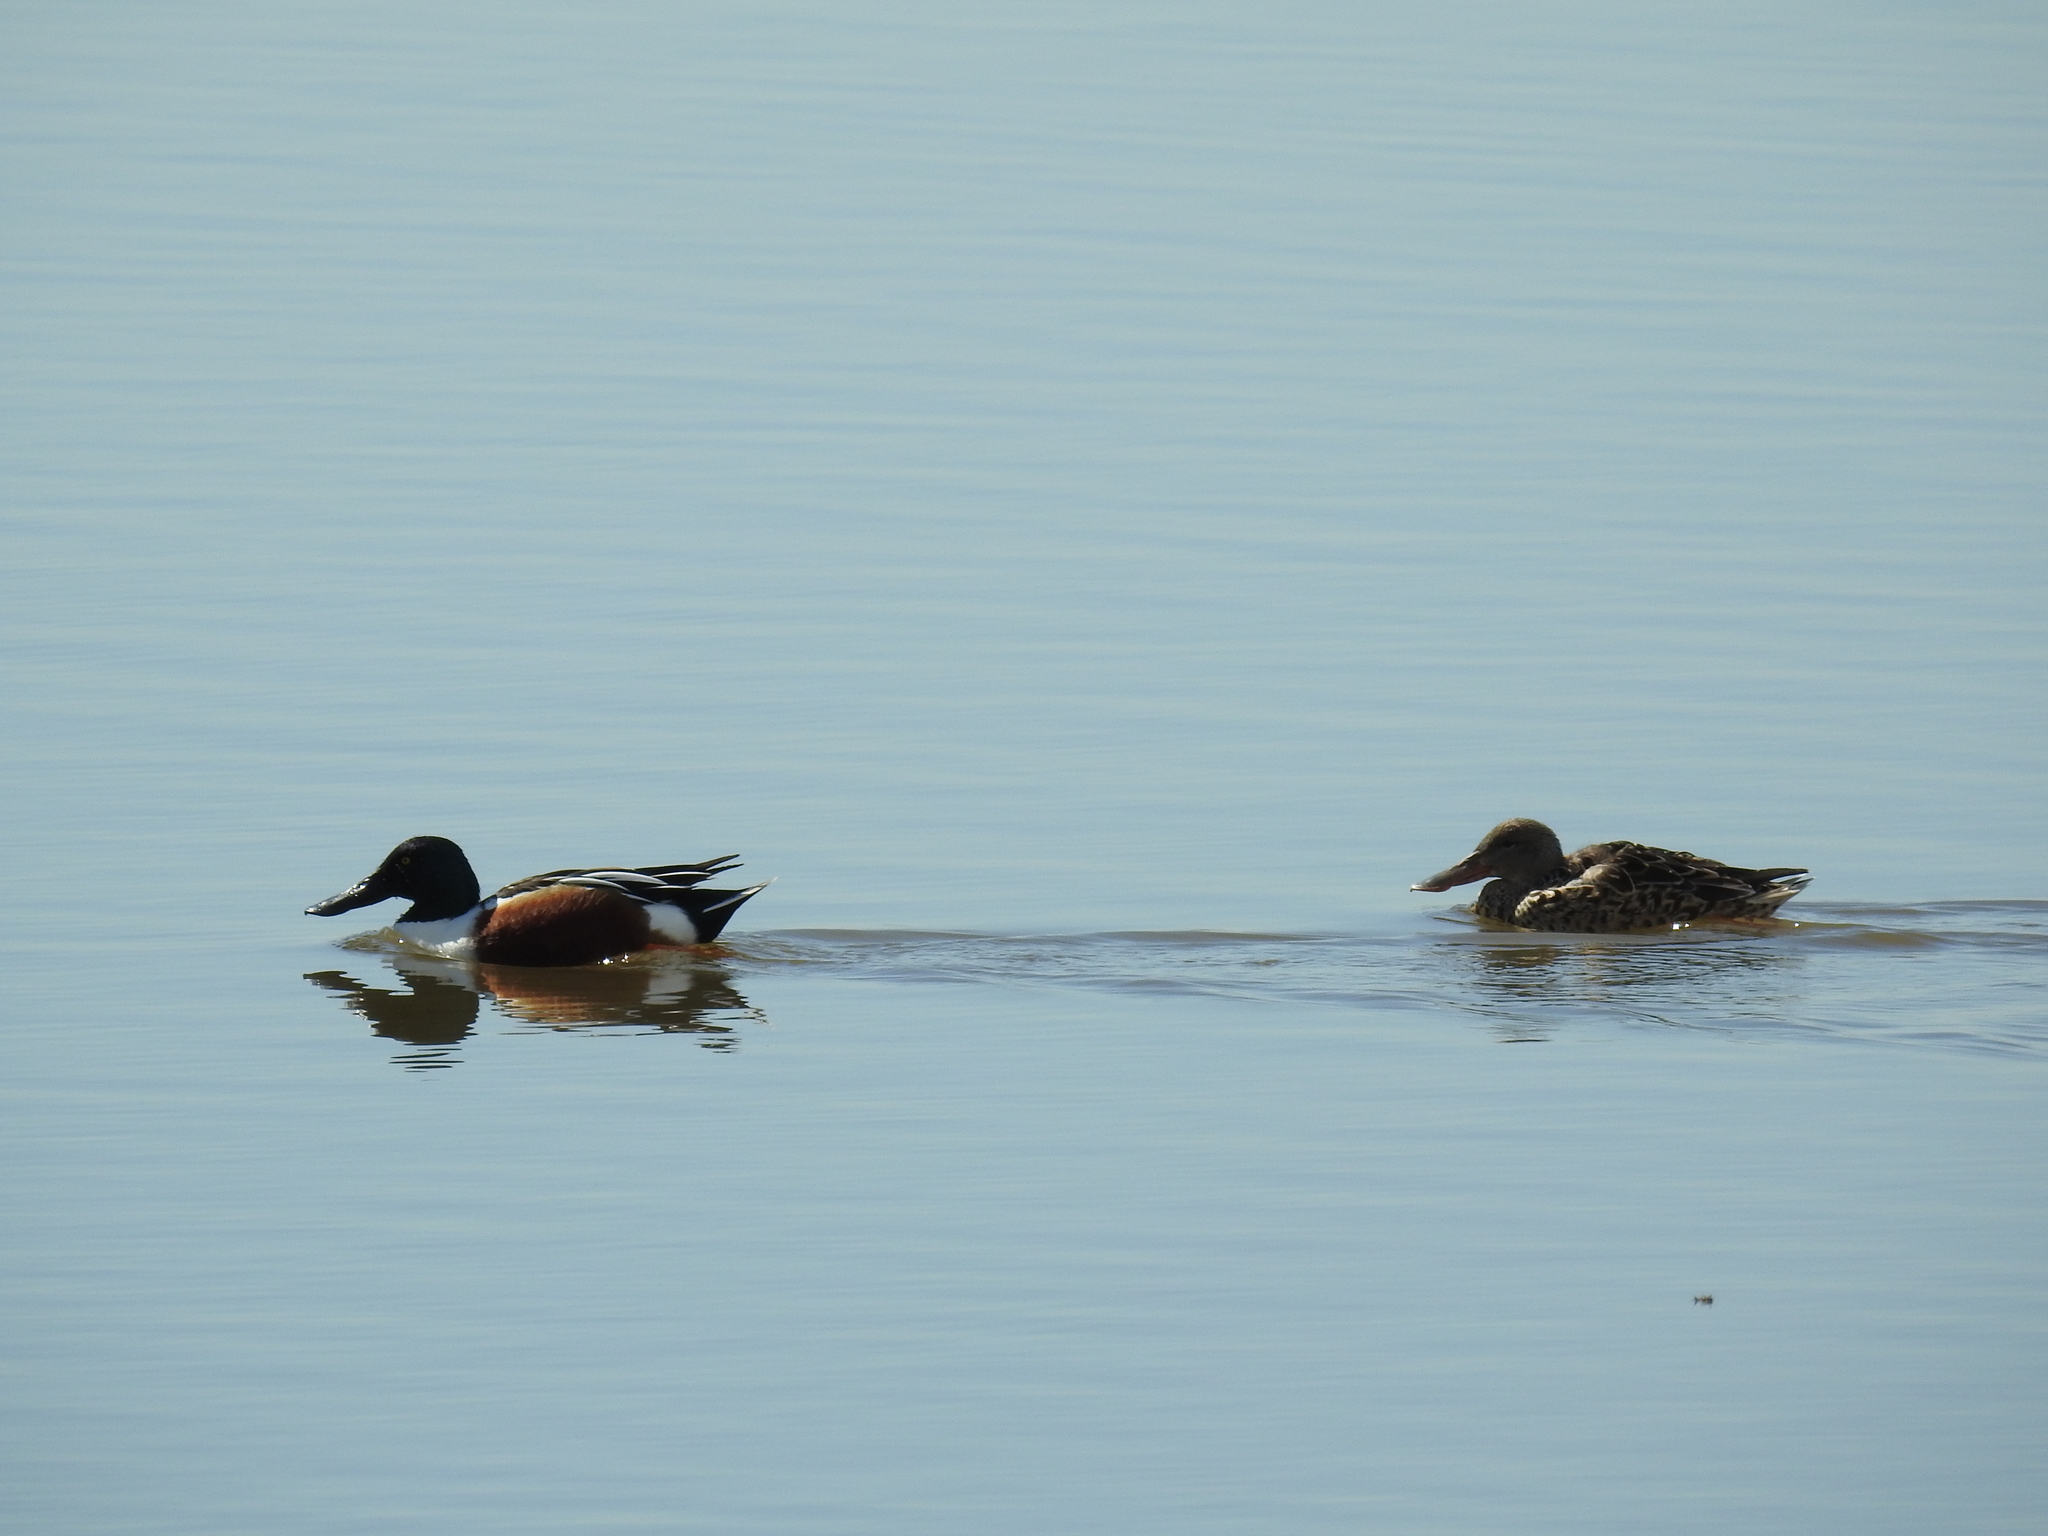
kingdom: Animalia
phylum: Chordata
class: Aves
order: Anseriformes
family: Anatidae
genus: Spatula
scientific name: Spatula clypeata
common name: Northern shoveler
